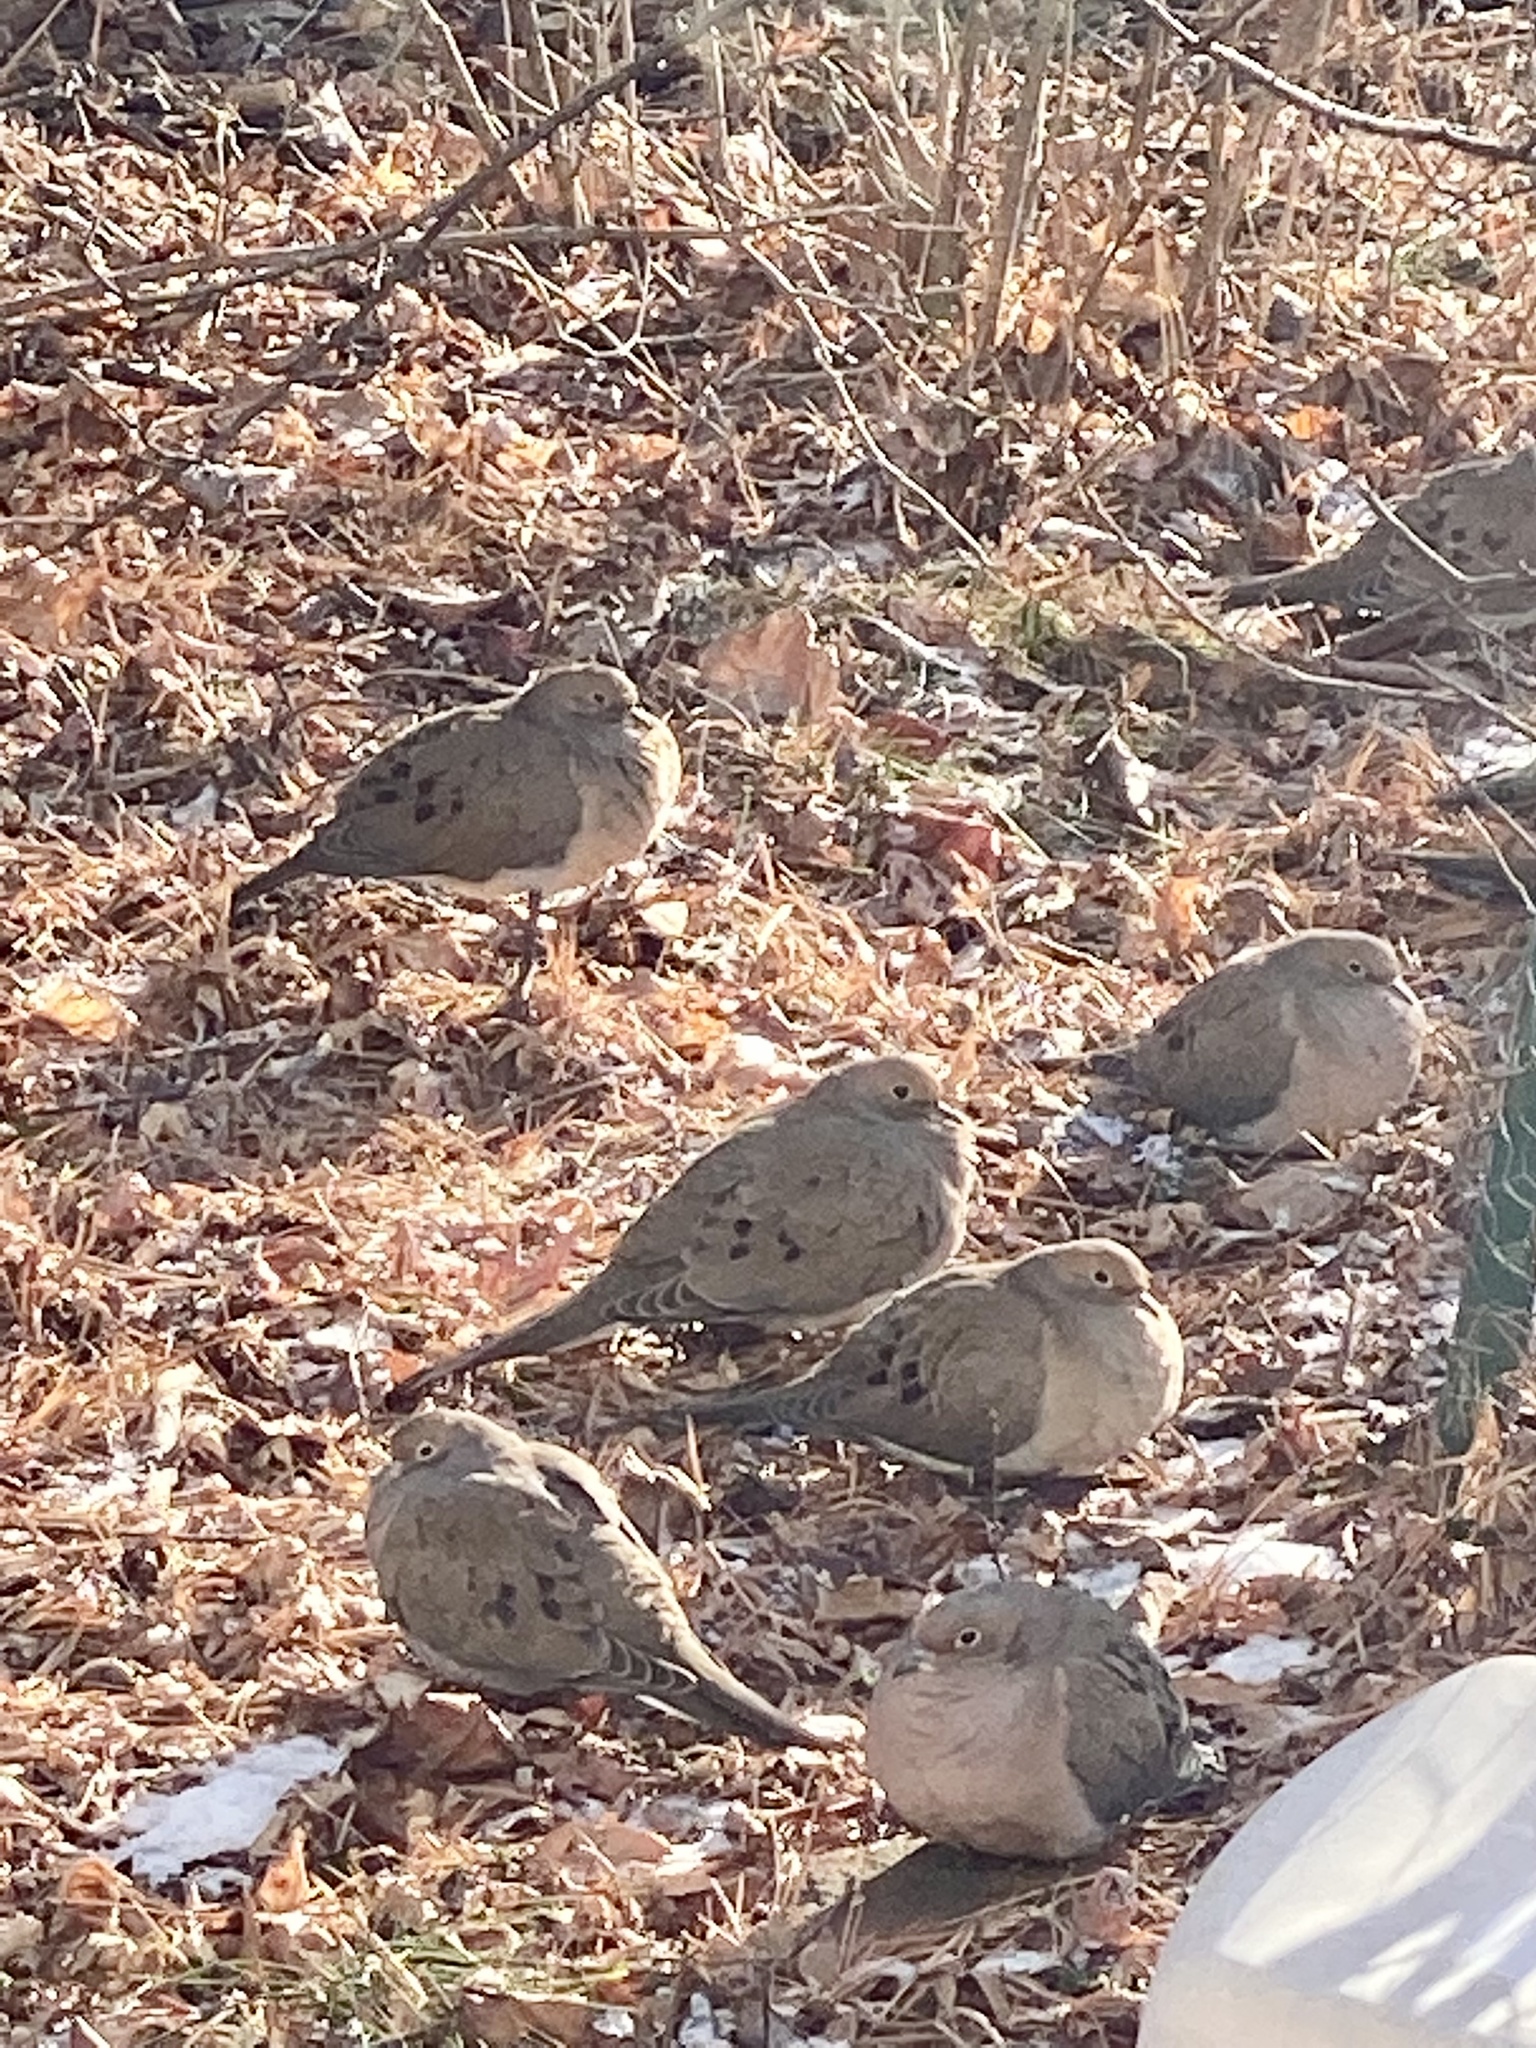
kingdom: Animalia
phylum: Chordata
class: Aves
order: Columbiformes
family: Columbidae
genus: Zenaida
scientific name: Zenaida macroura
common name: Mourning dove
